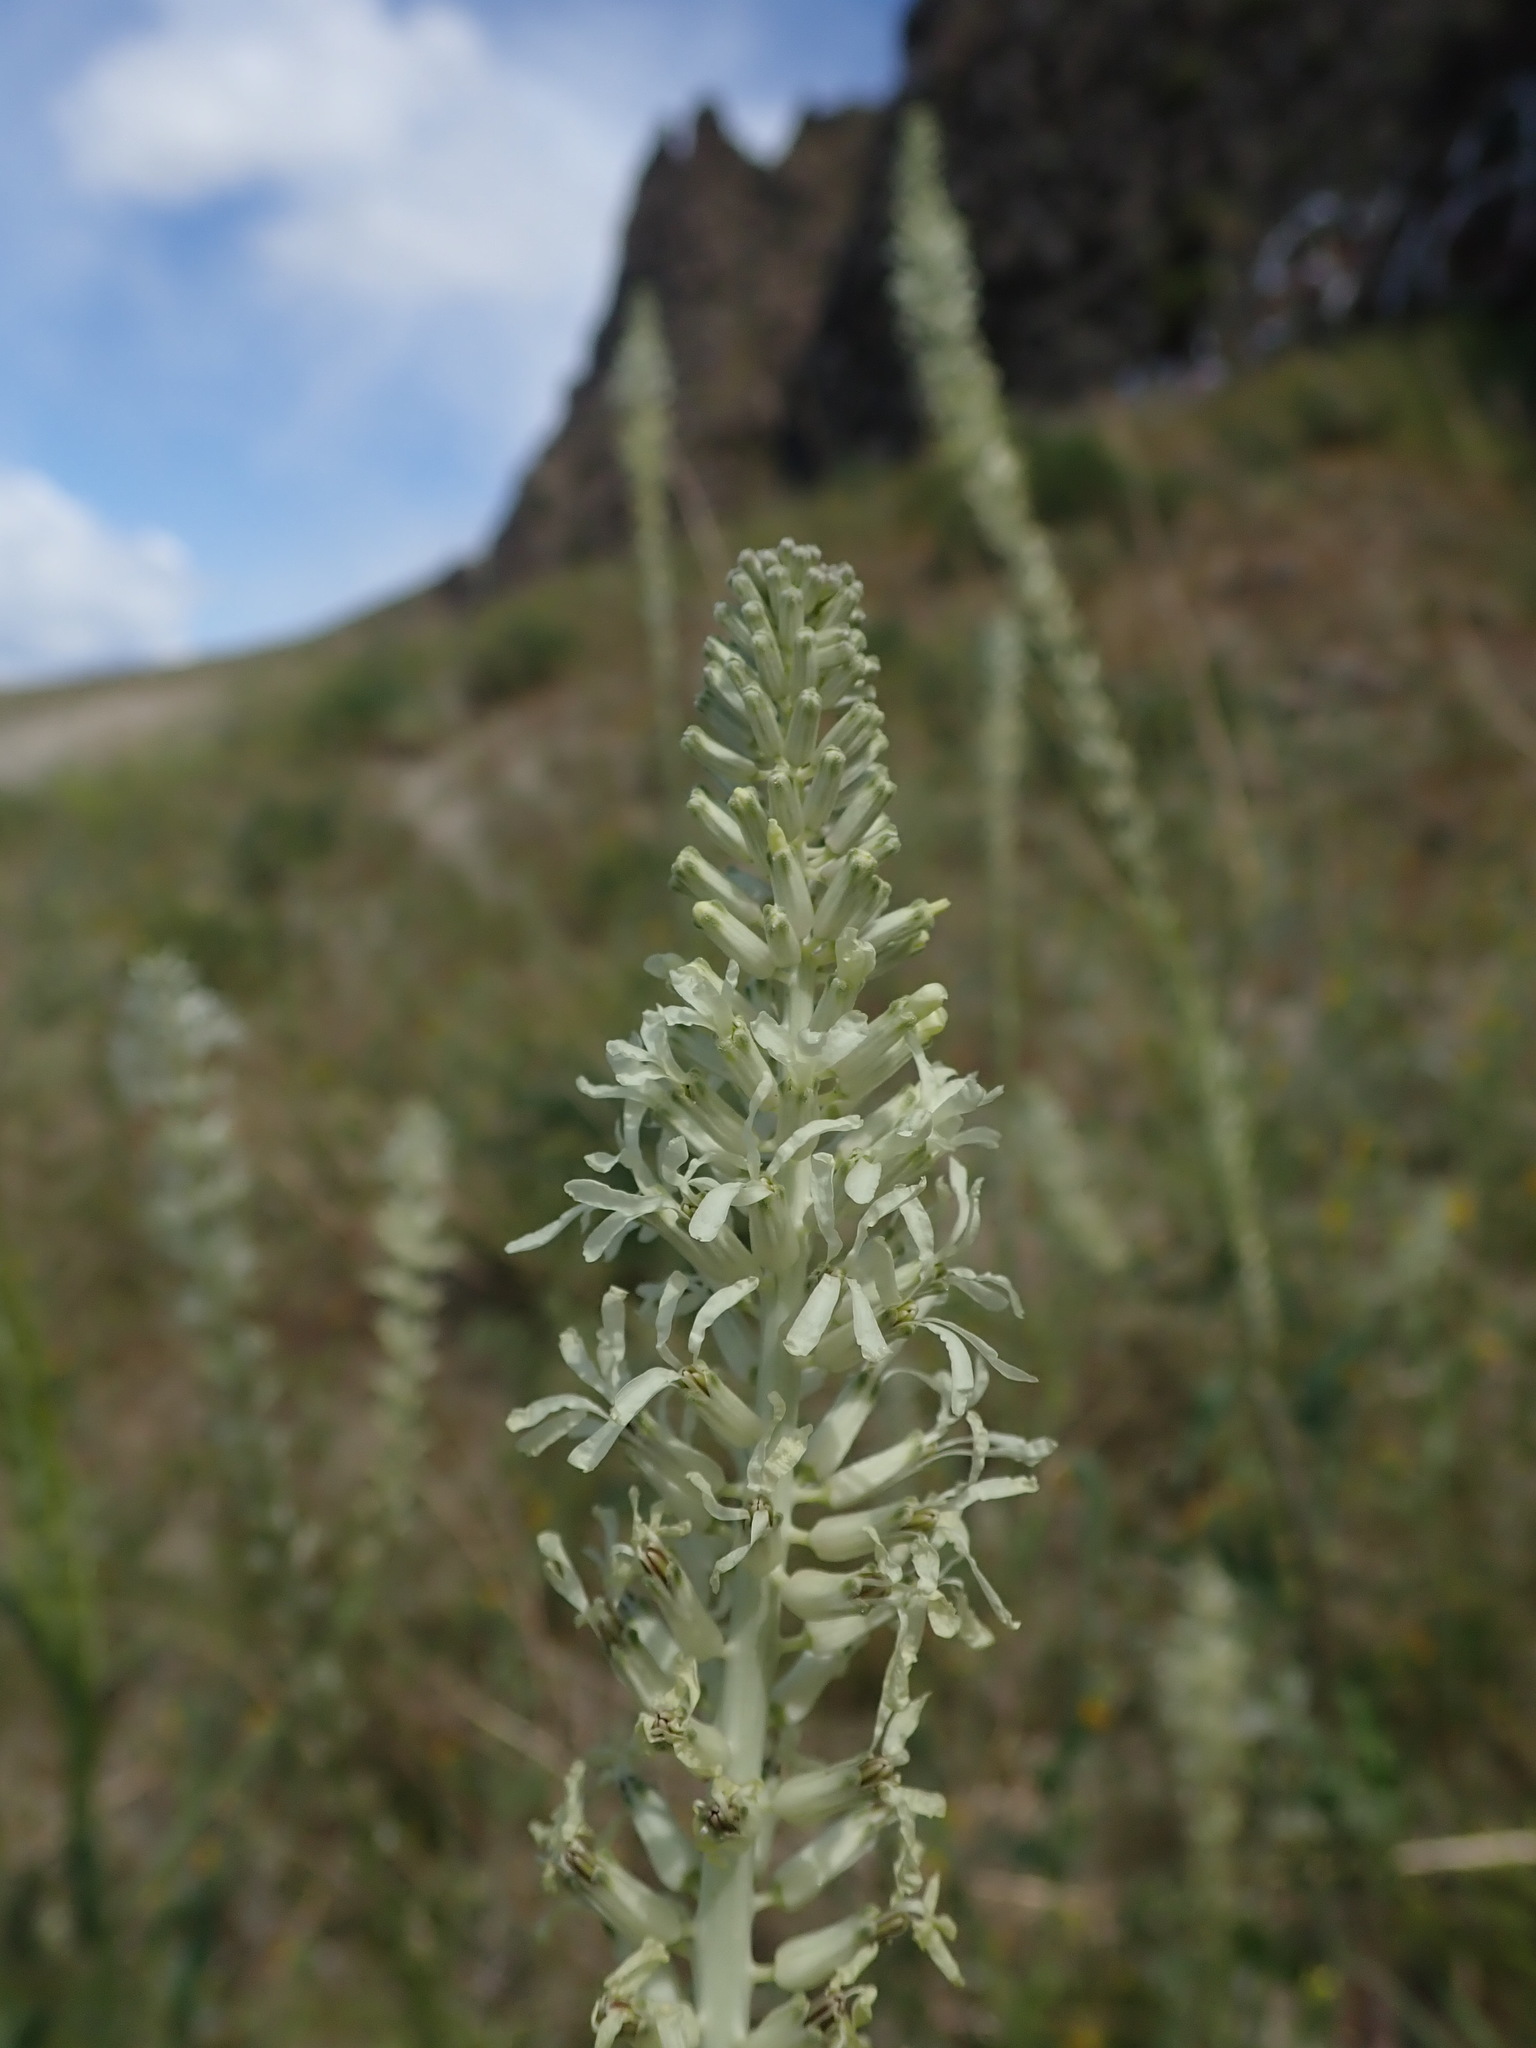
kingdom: Plantae
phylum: Tracheophyta
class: Magnoliopsida
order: Brassicales
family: Brassicaceae
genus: Thelypodium
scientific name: Thelypodium laciniatum
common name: Cut-leaved thelypody
